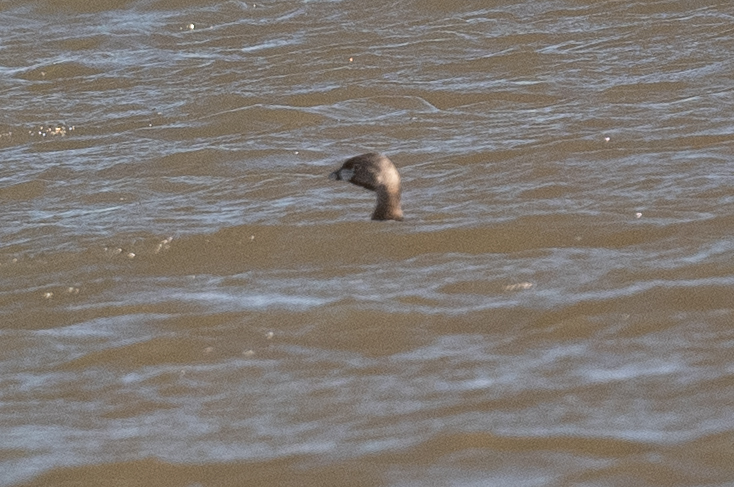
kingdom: Animalia
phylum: Chordata
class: Aves
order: Podicipediformes
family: Podicipedidae
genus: Podilymbus
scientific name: Podilymbus podiceps
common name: Pied-billed grebe
